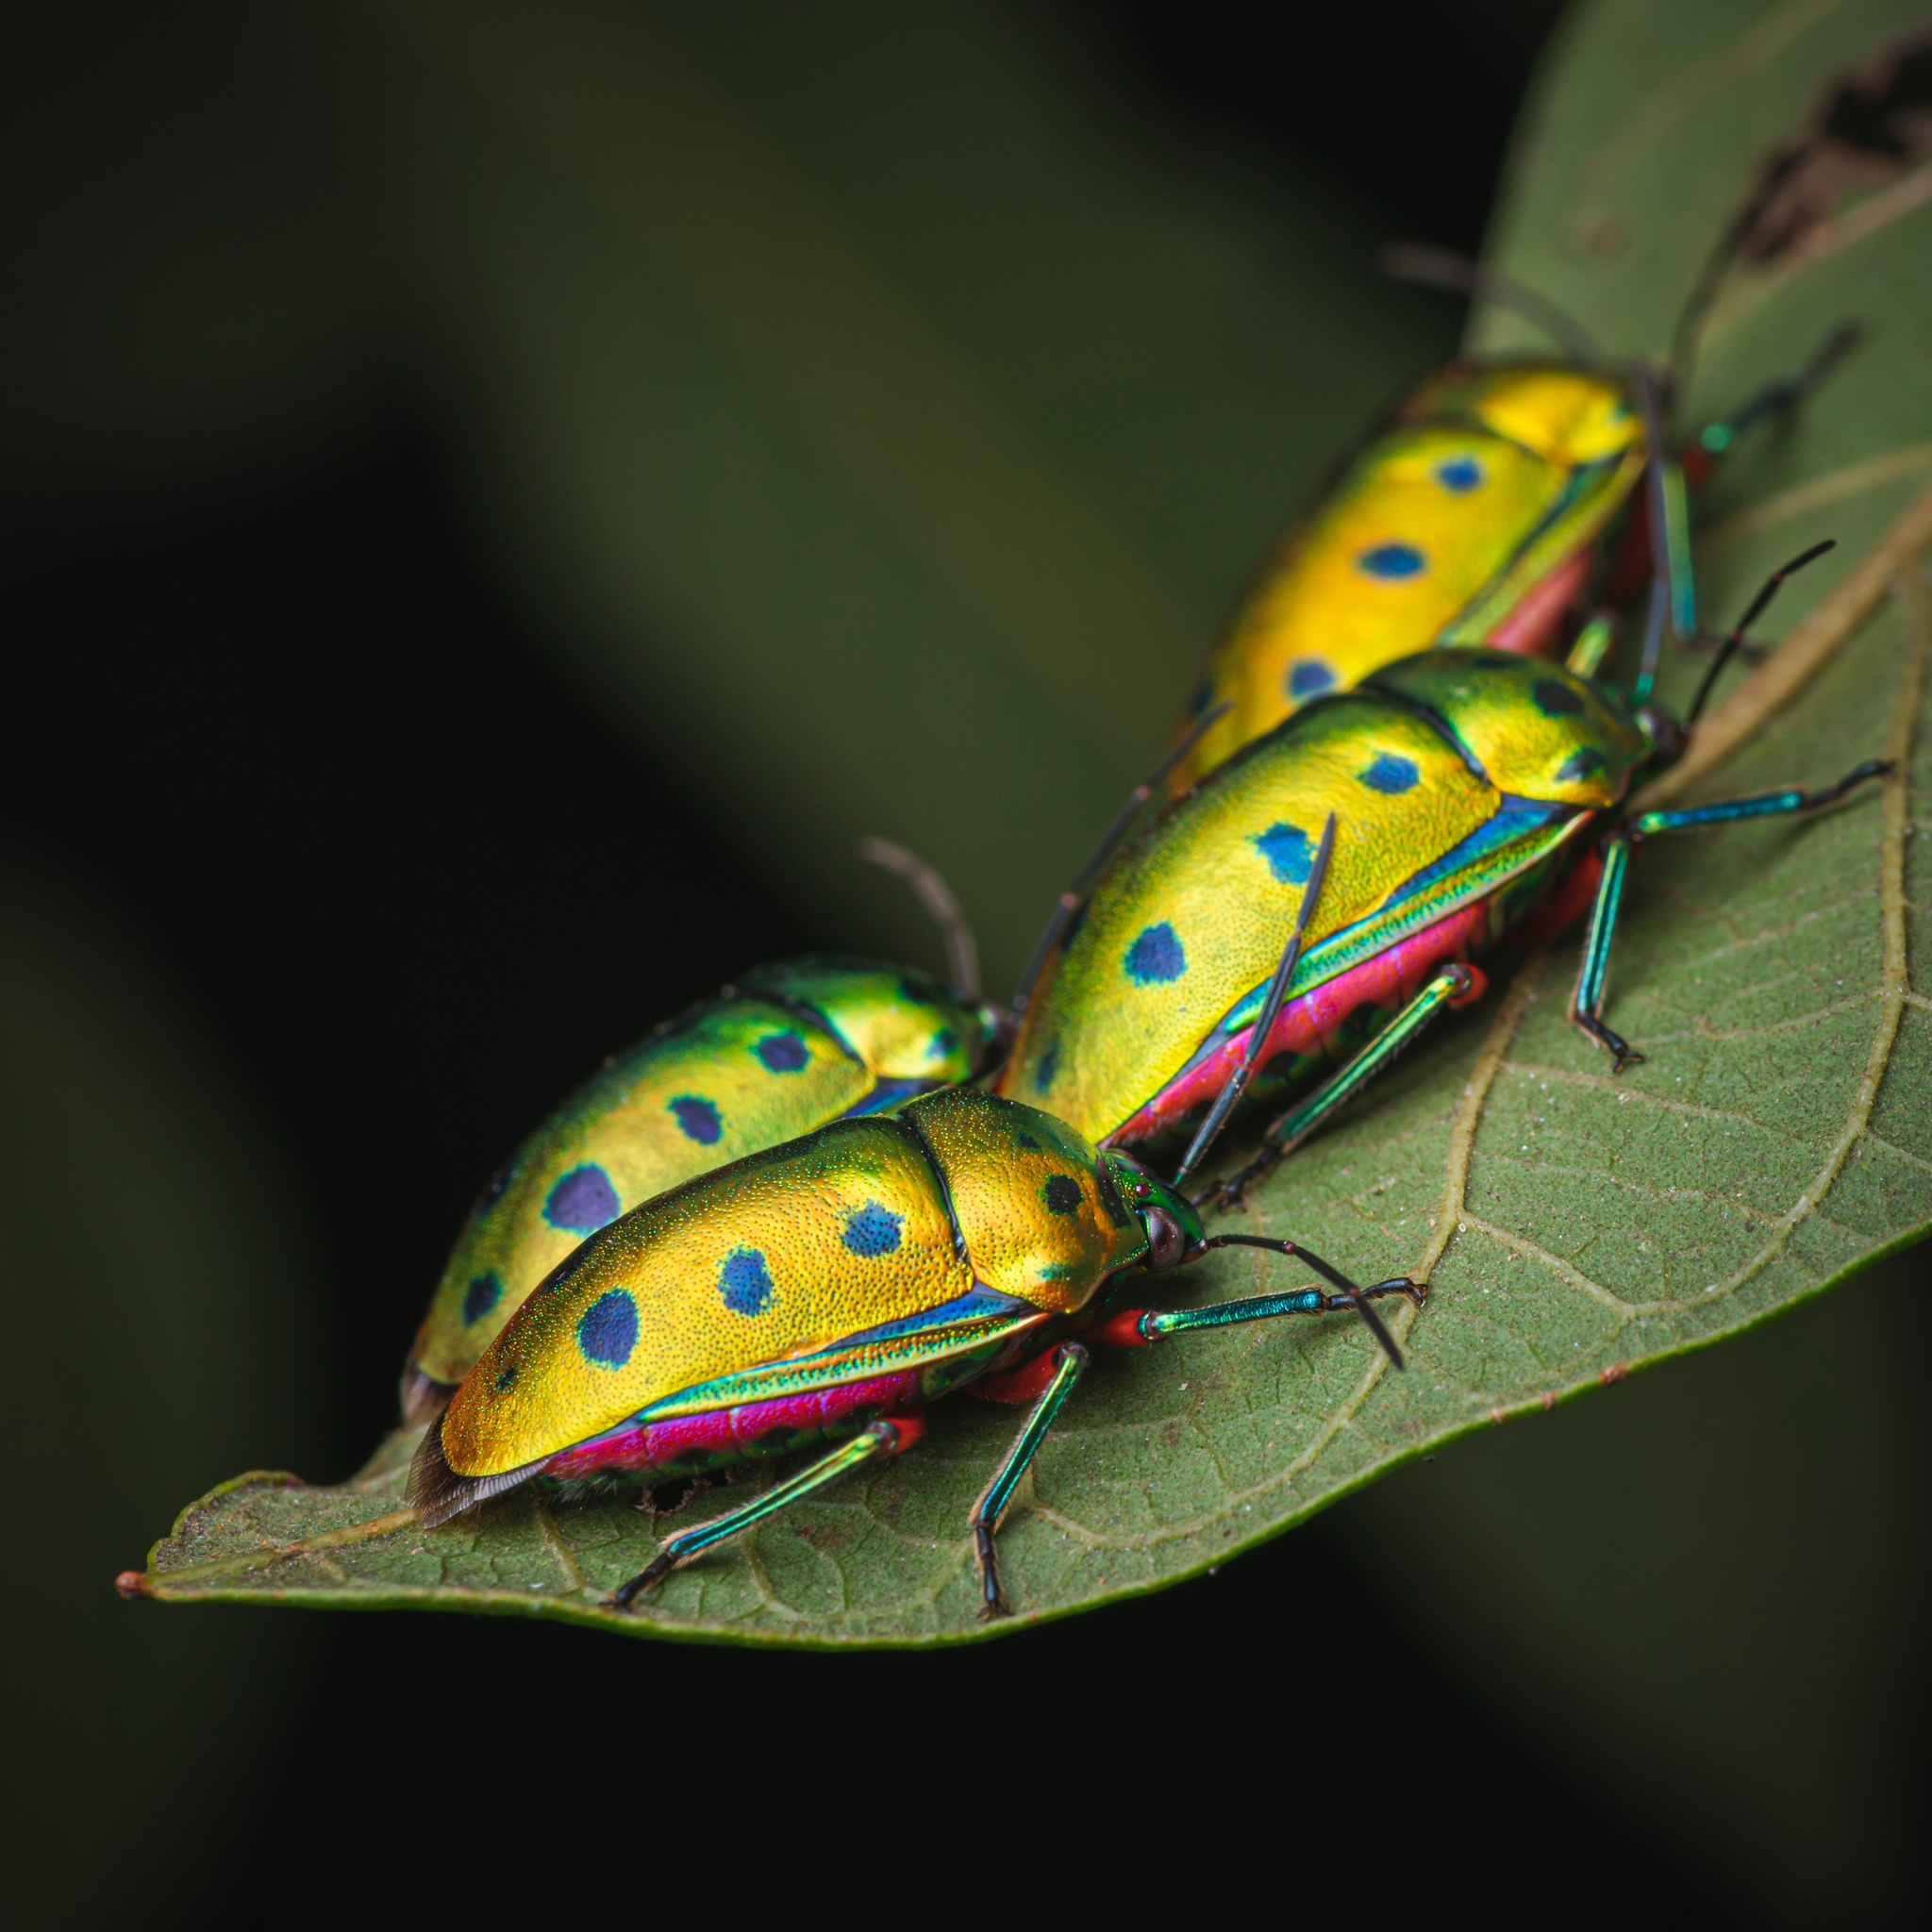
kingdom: Animalia
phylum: Arthropoda
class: Insecta
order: Hemiptera
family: Scutelleridae
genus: Calliphara
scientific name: Calliphara nobilis
